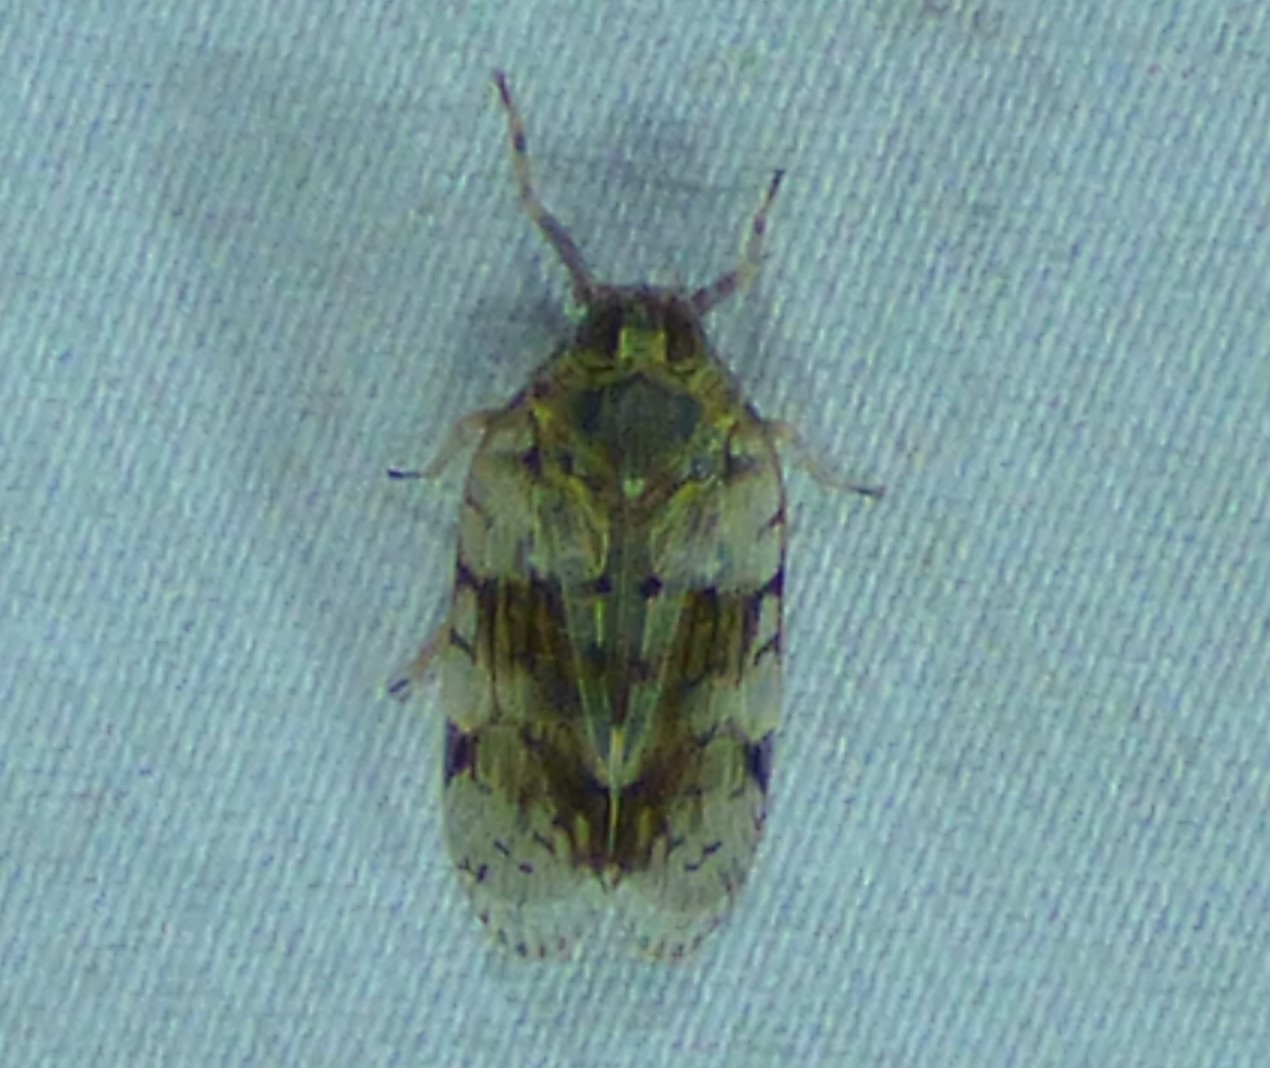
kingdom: Animalia
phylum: Arthropoda
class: Insecta
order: Hemiptera
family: Cixiidae
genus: Melanoliarus
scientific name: Melanoliarus placitus
